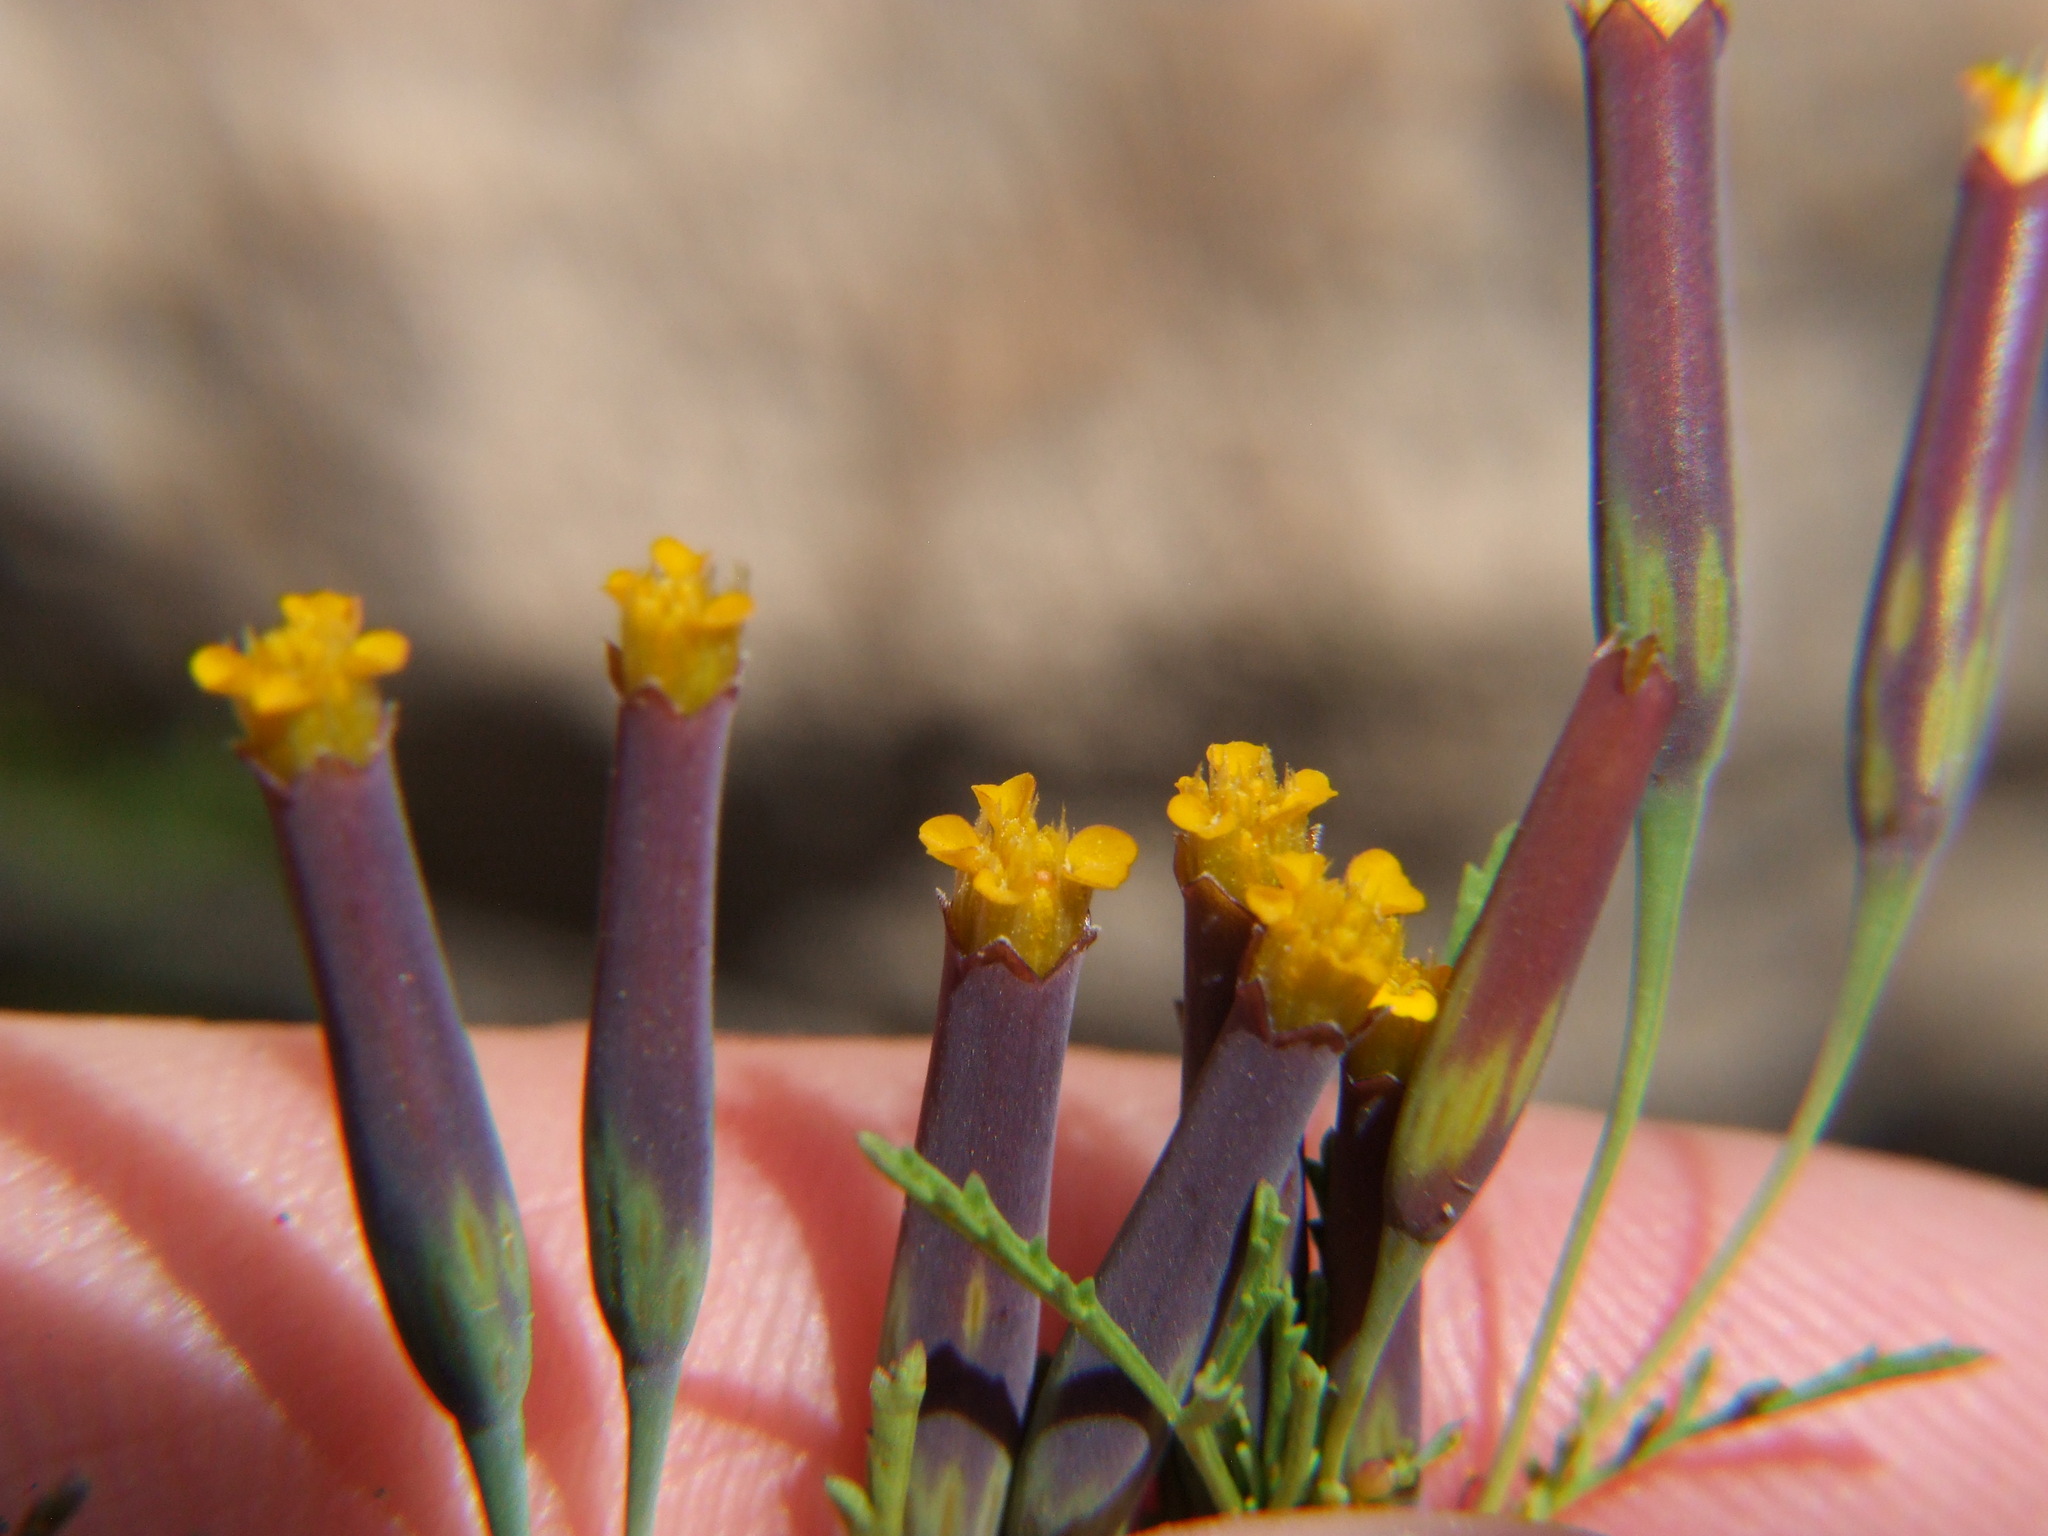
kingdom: Plantae
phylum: Tracheophyta
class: Magnoliopsida
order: Asterales
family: Asteraceae
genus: Tagetes
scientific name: Tagetes multiflora
